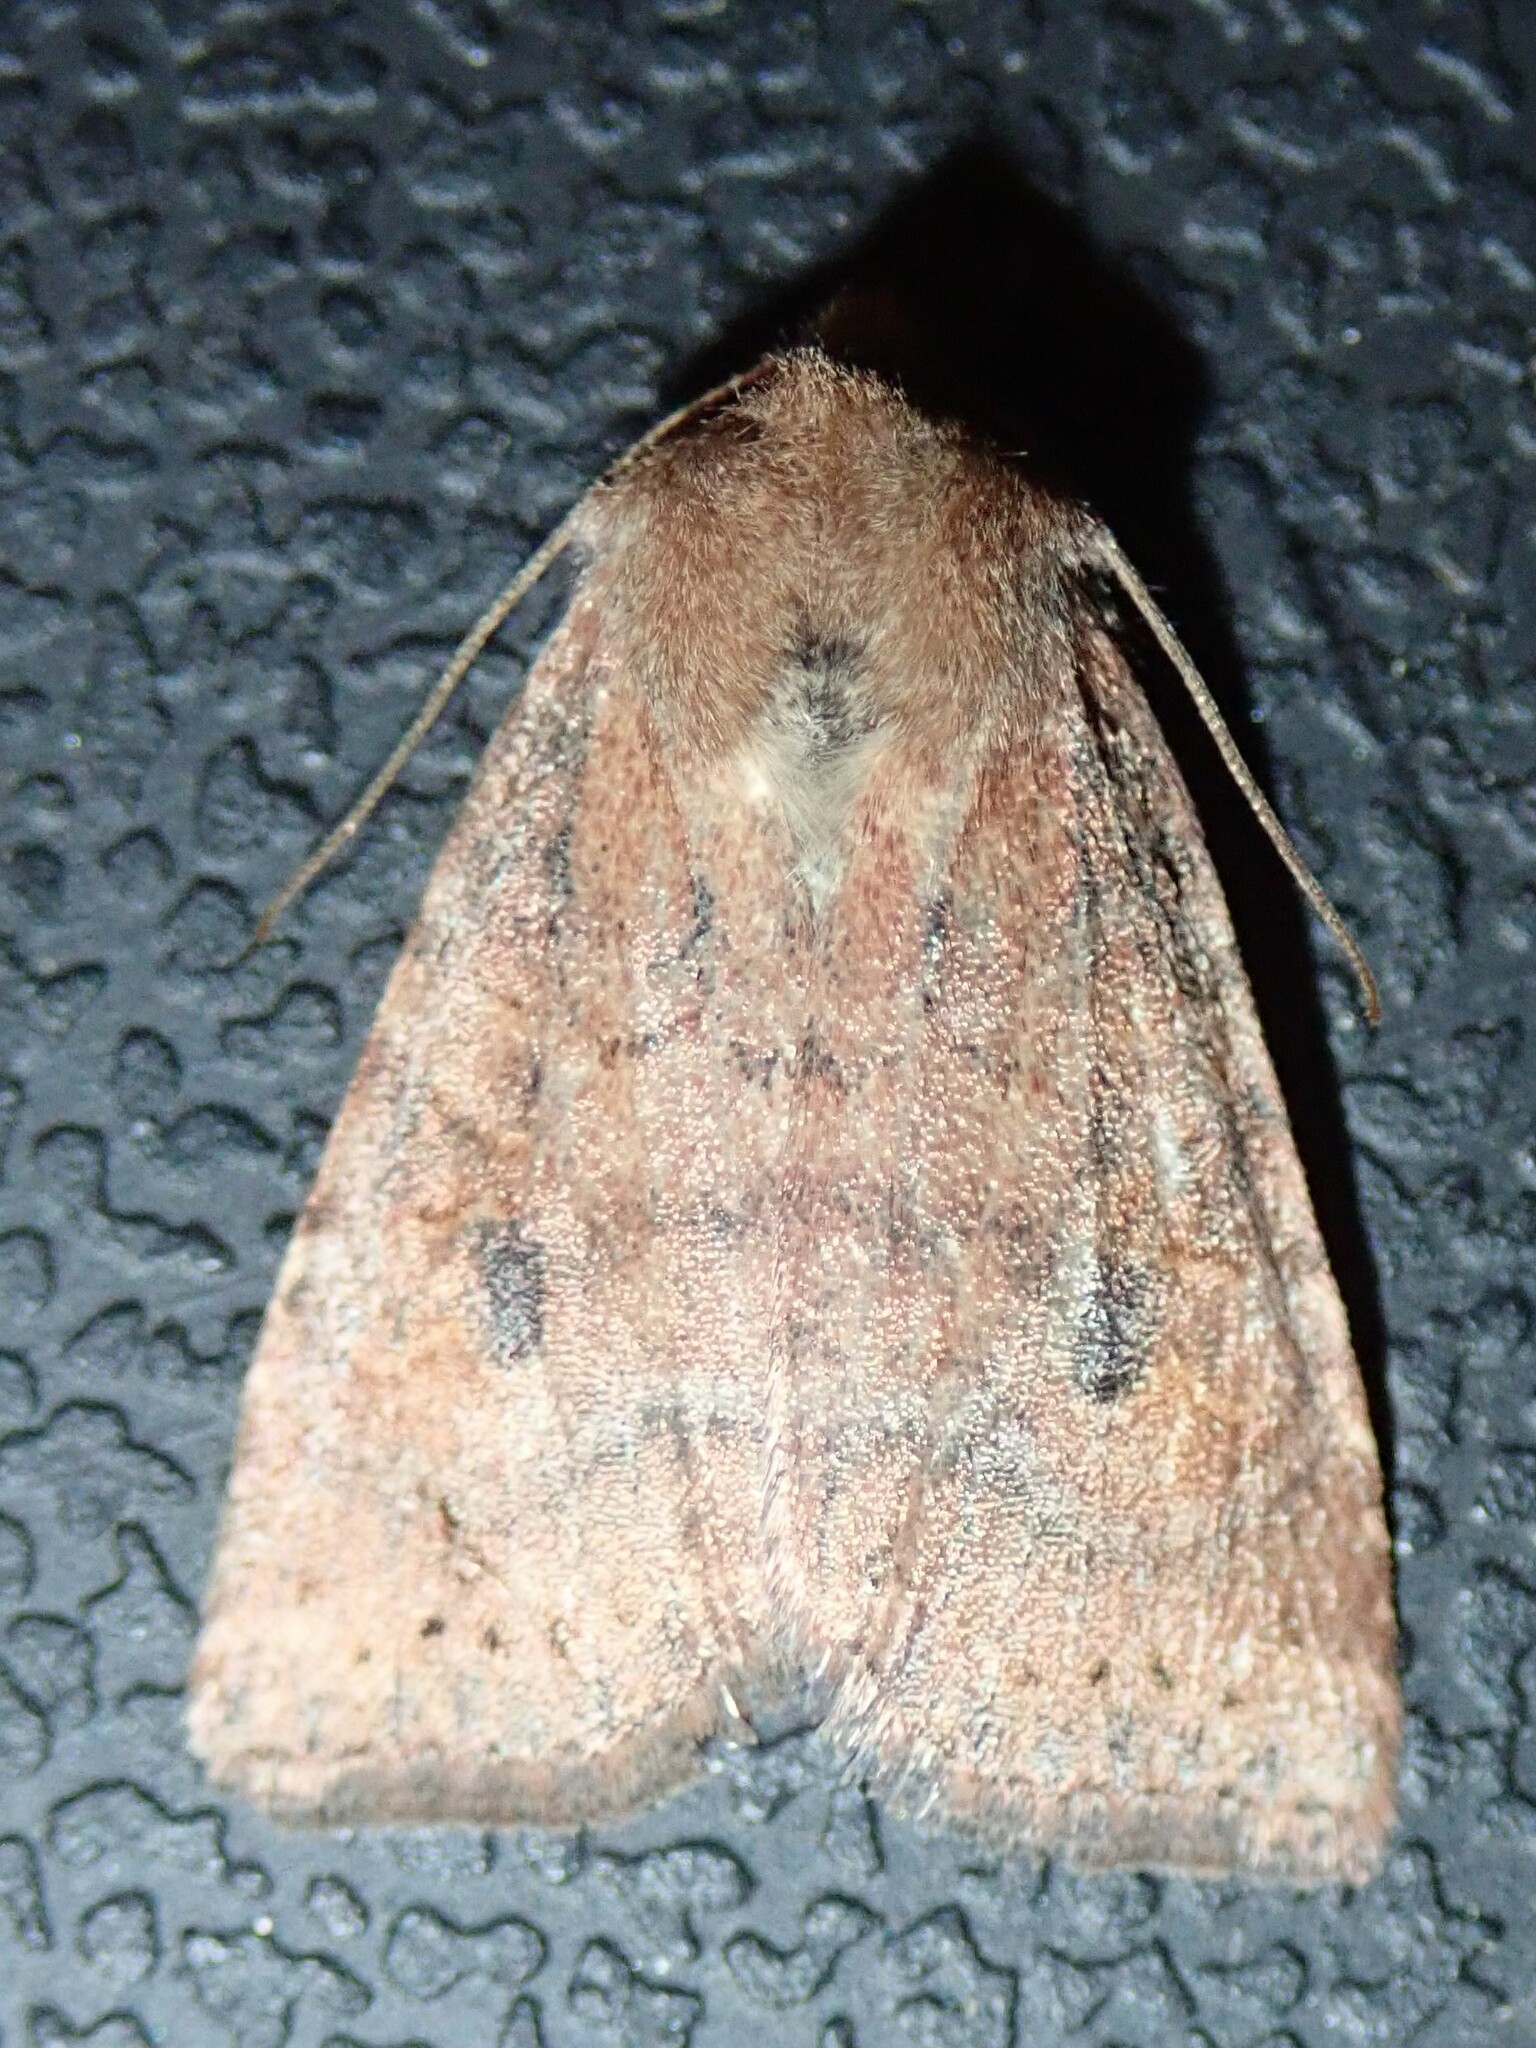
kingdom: Animalia
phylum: Arthropoda
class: Insecta
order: Lepidoptera
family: Noctuidae
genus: Anathix
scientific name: Anathix puta
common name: Puta sallow
